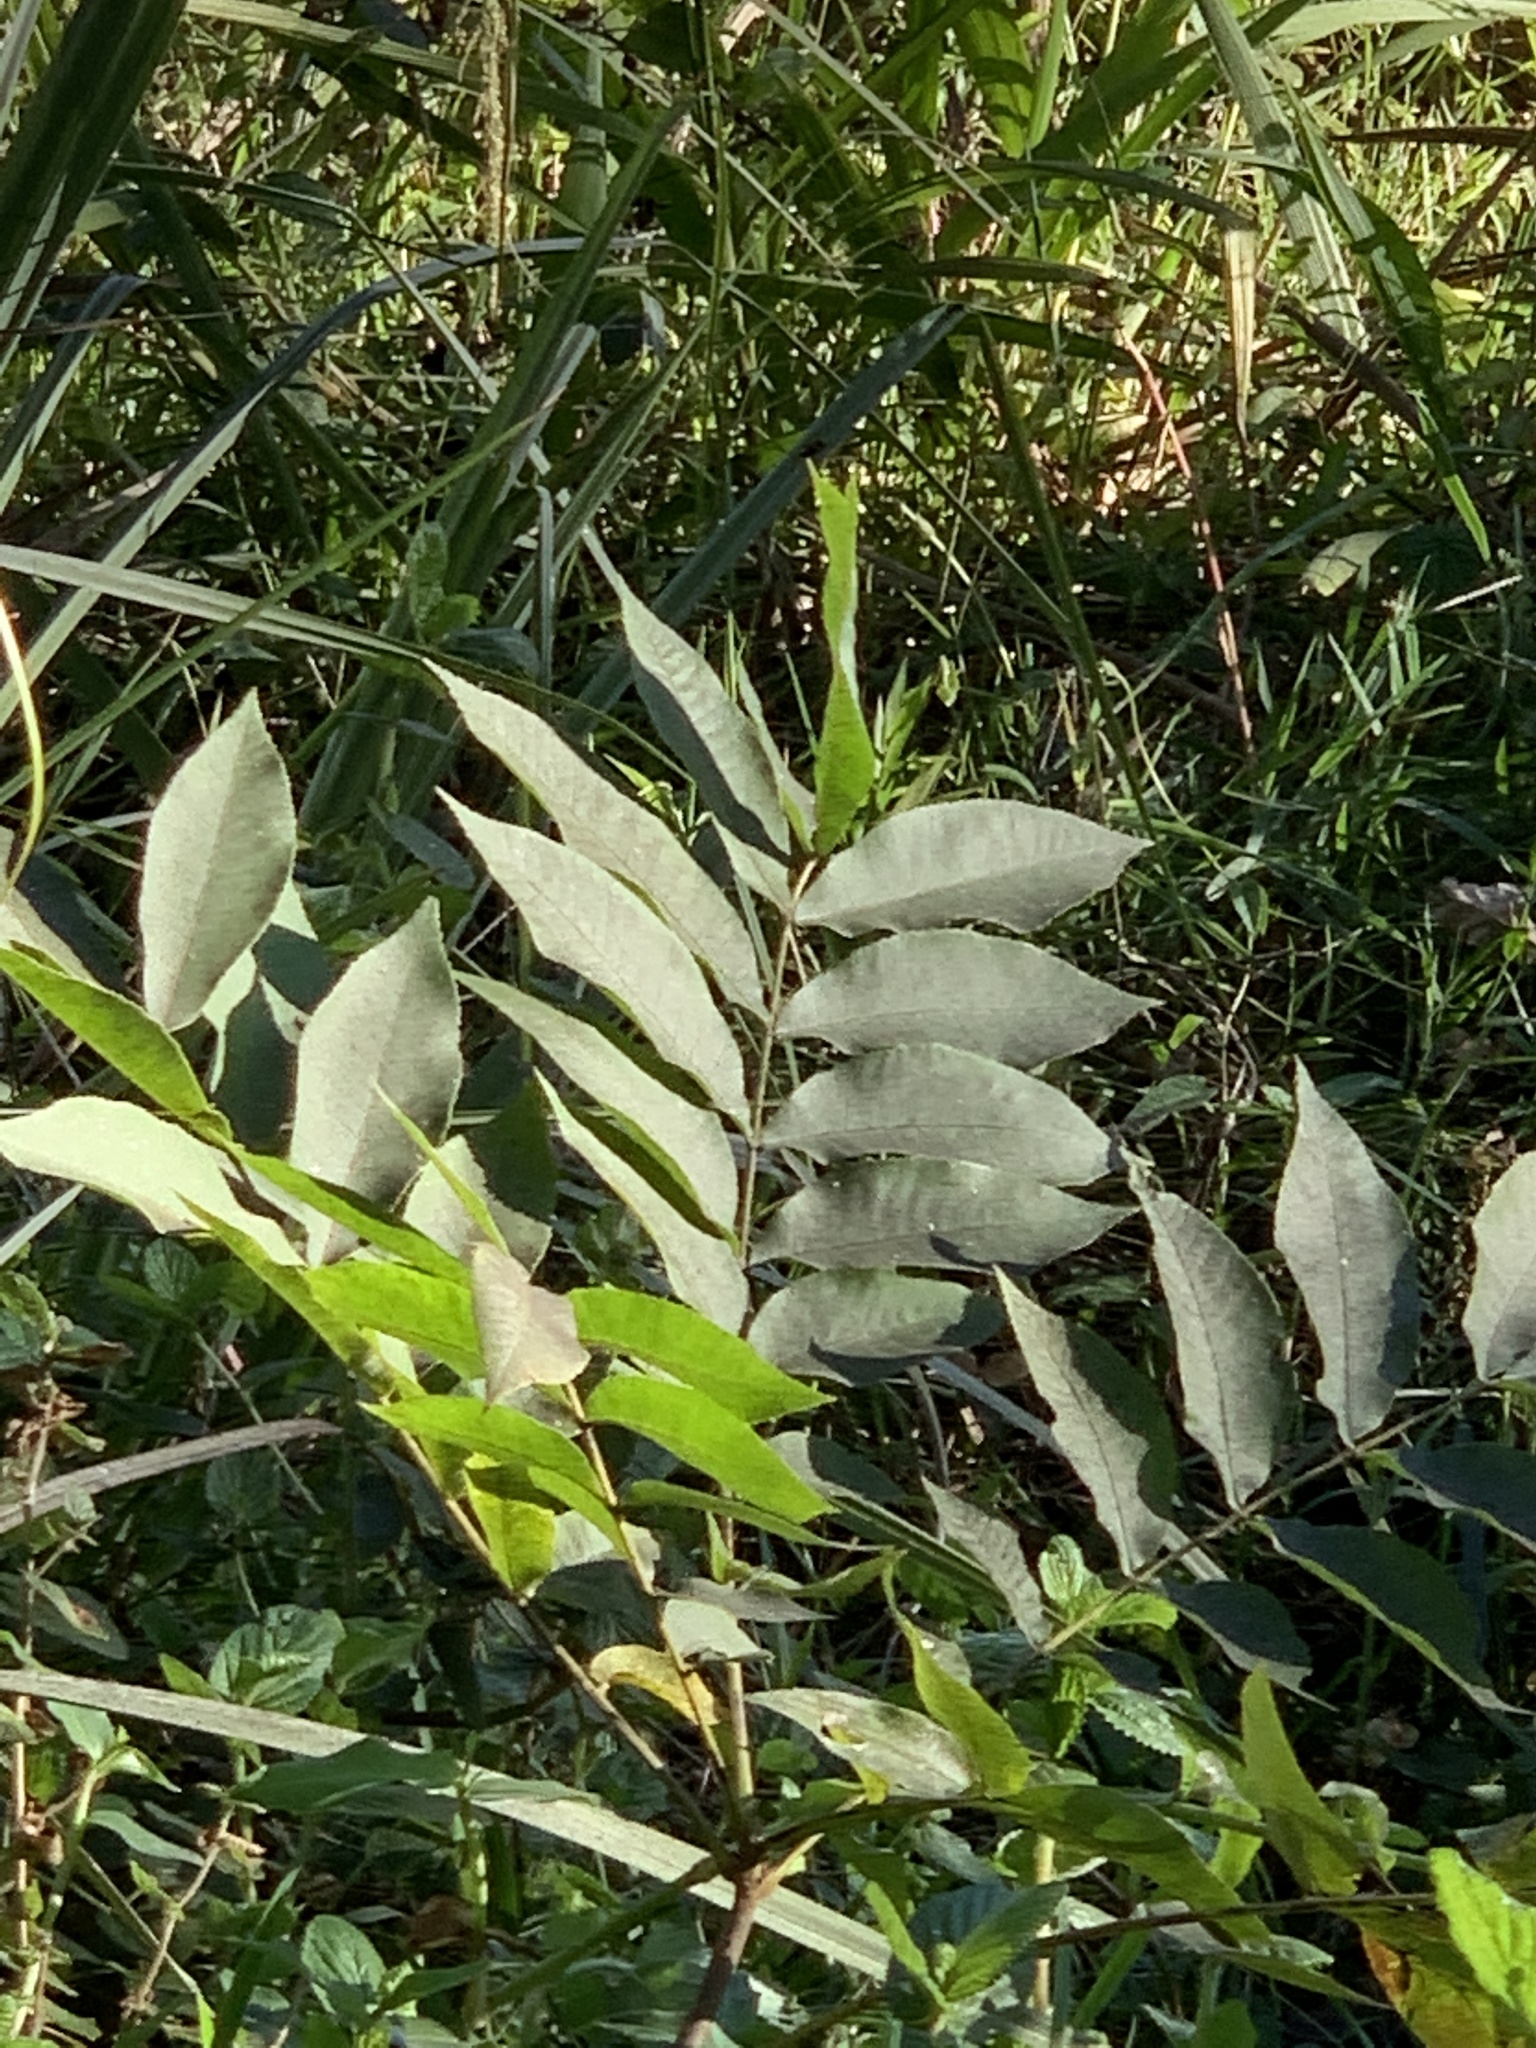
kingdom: Plantae
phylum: Tracheophyta
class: Magnoliopsida
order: Fagales
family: Juglandaceae
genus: Carya
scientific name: Carya illinoinensis
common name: Pecan
